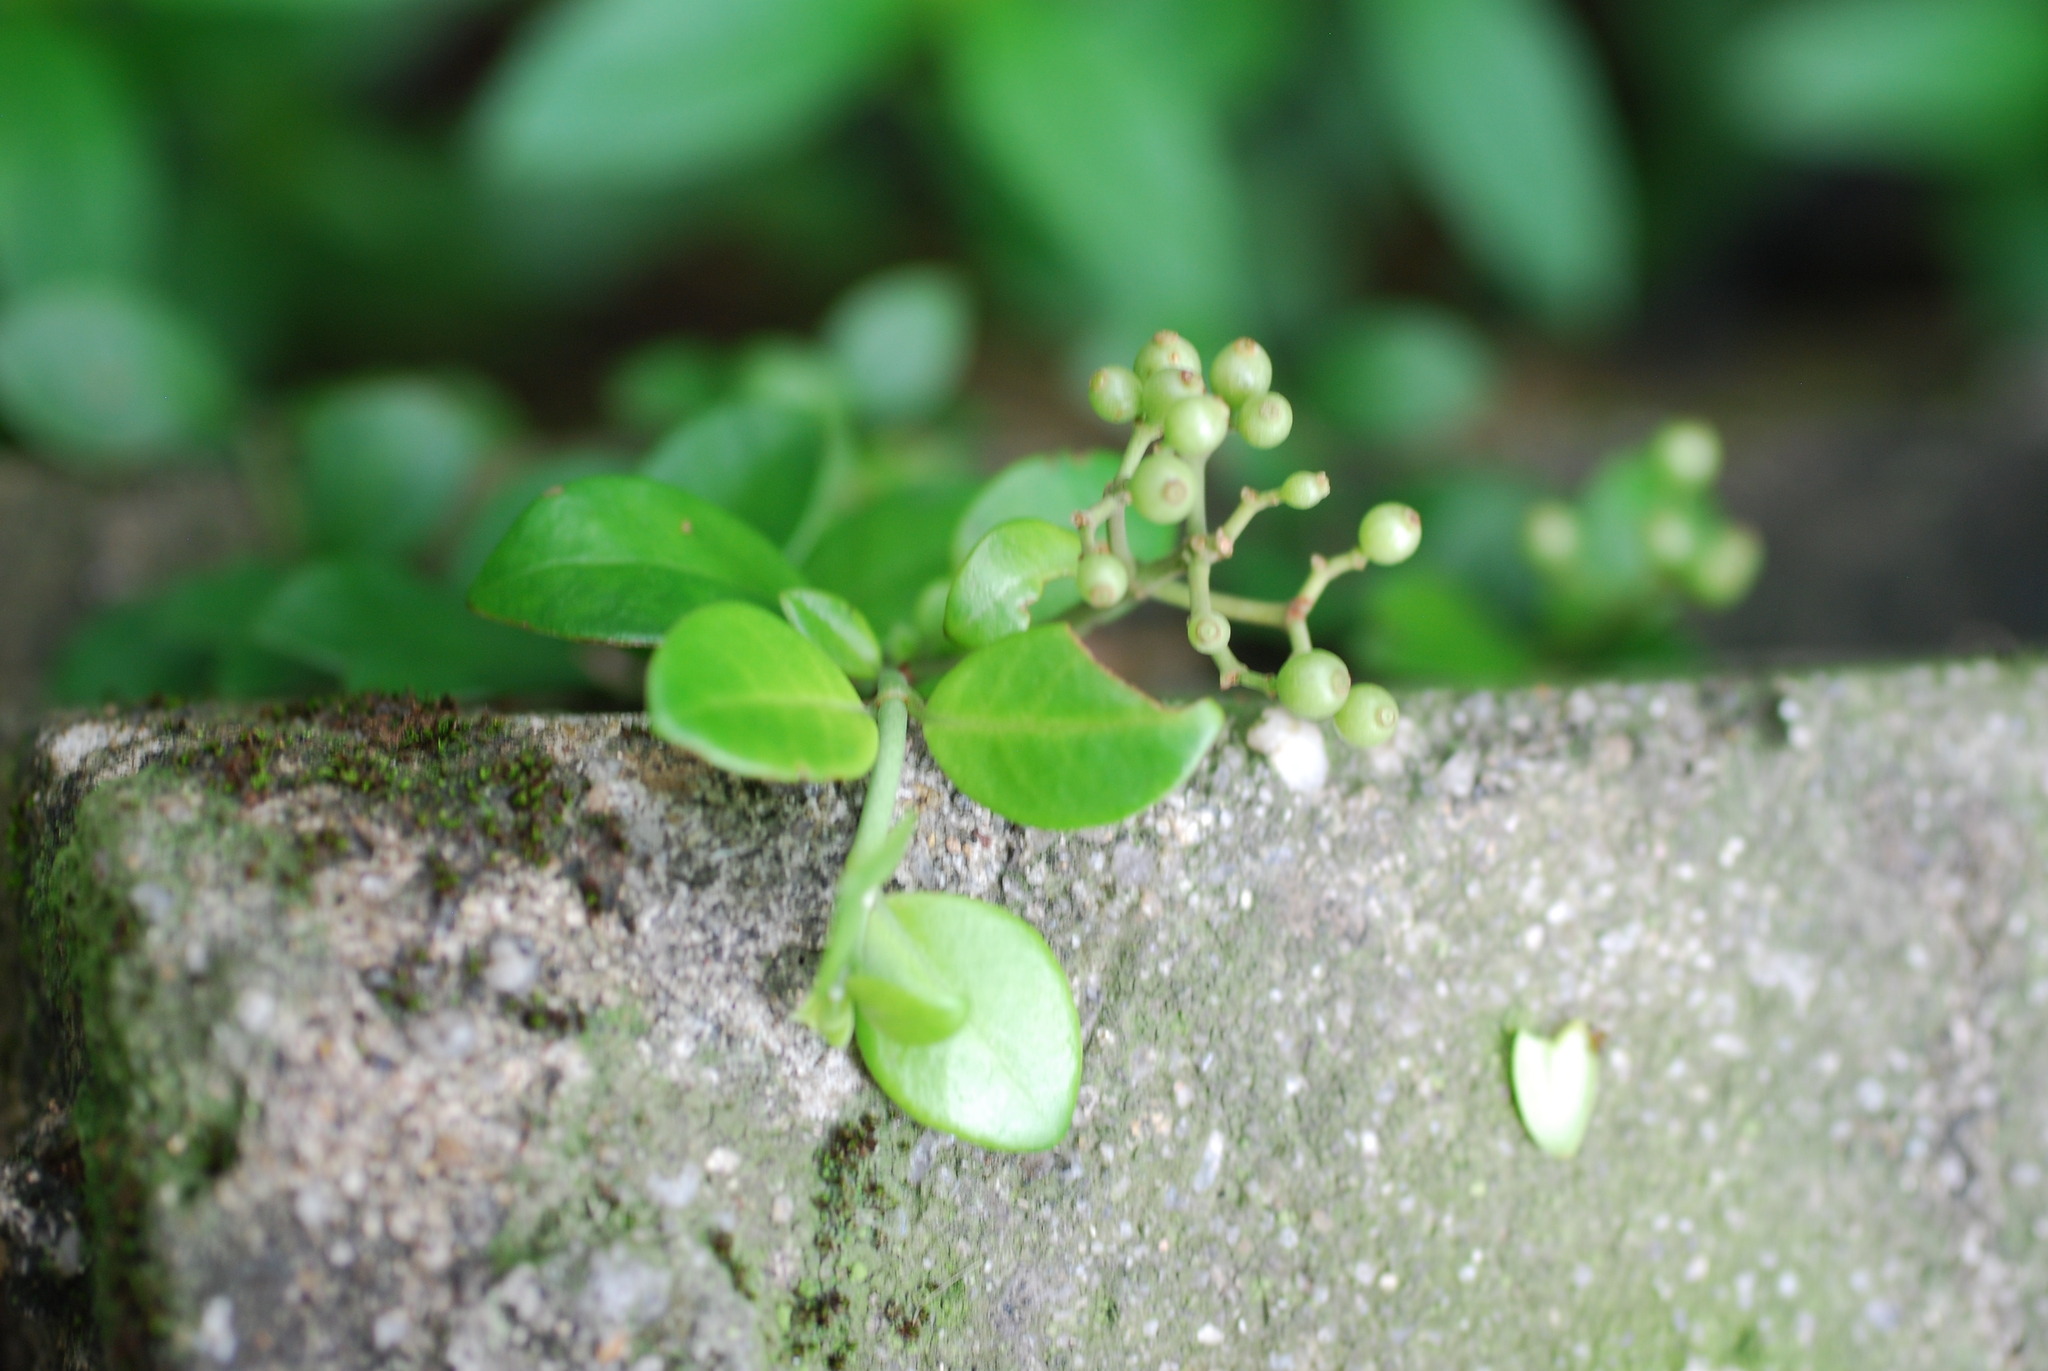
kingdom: Plantae
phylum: Tracheophyta
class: Magnoliopsida
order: Gentianales
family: Rubiaceae
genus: Psychotria
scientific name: Psychotria serpens
